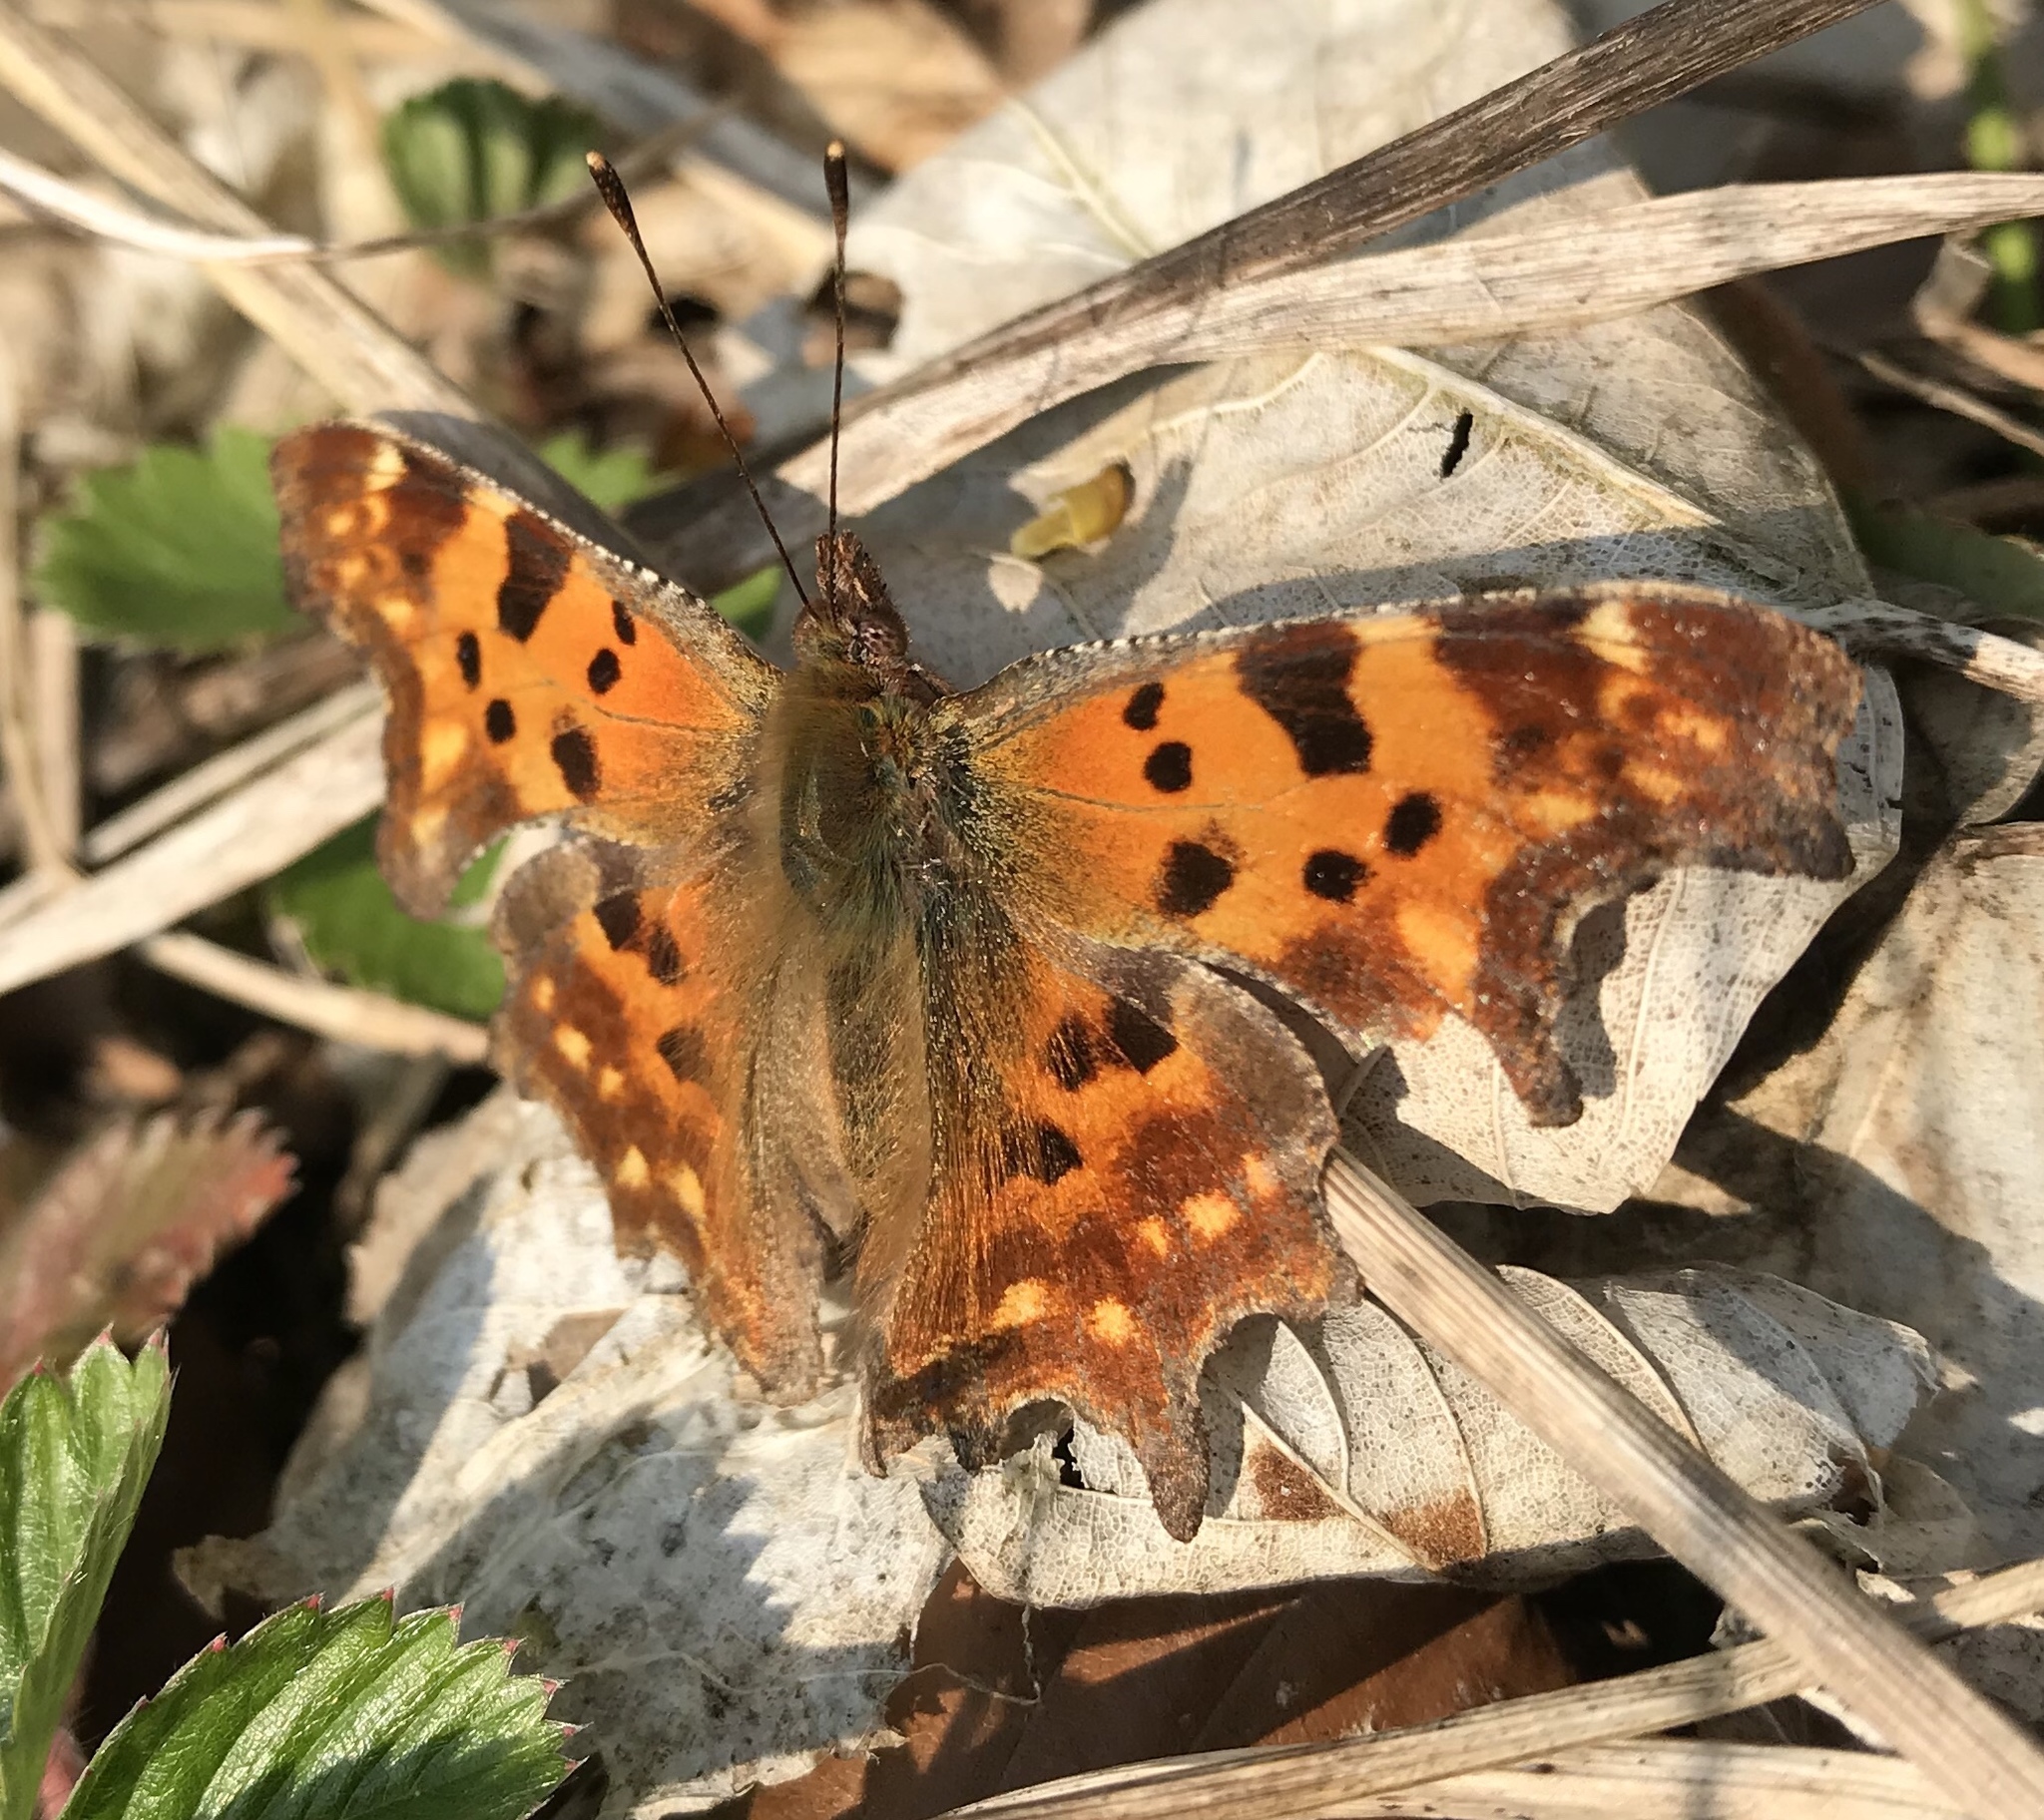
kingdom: Animalia
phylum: Arthropoda
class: Insecta
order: Lepidoptera
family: Nymphalidae
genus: Polygonia
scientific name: Polygonia c-album
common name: Comma
